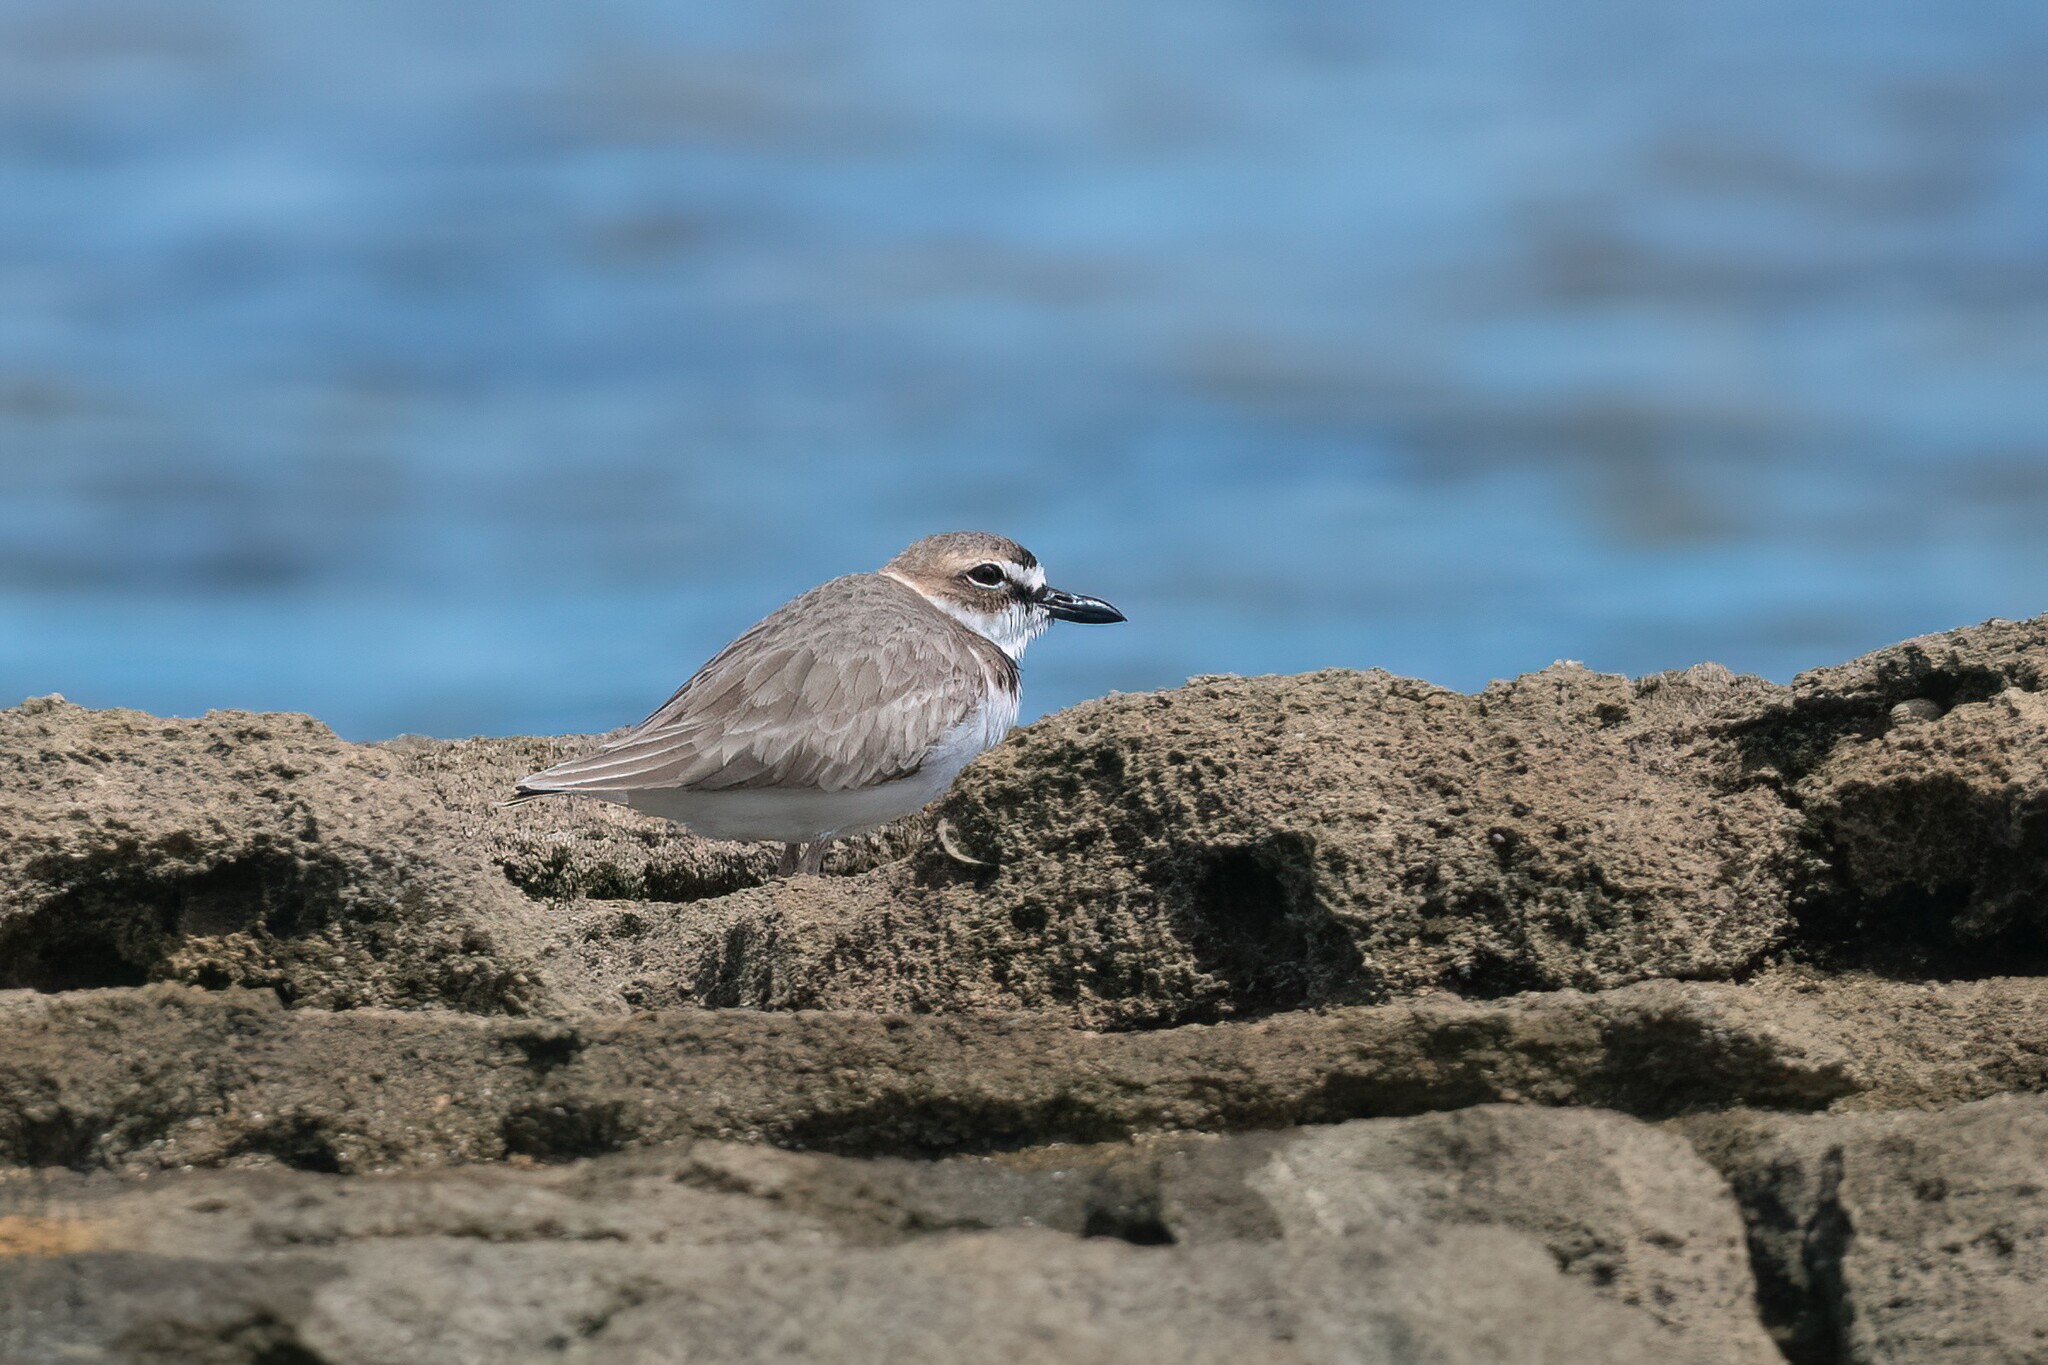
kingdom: Animalia
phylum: Chordata
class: Aves
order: Charadriiformes
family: Charadriidae
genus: Anarhynchus
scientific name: Anarhynchus
